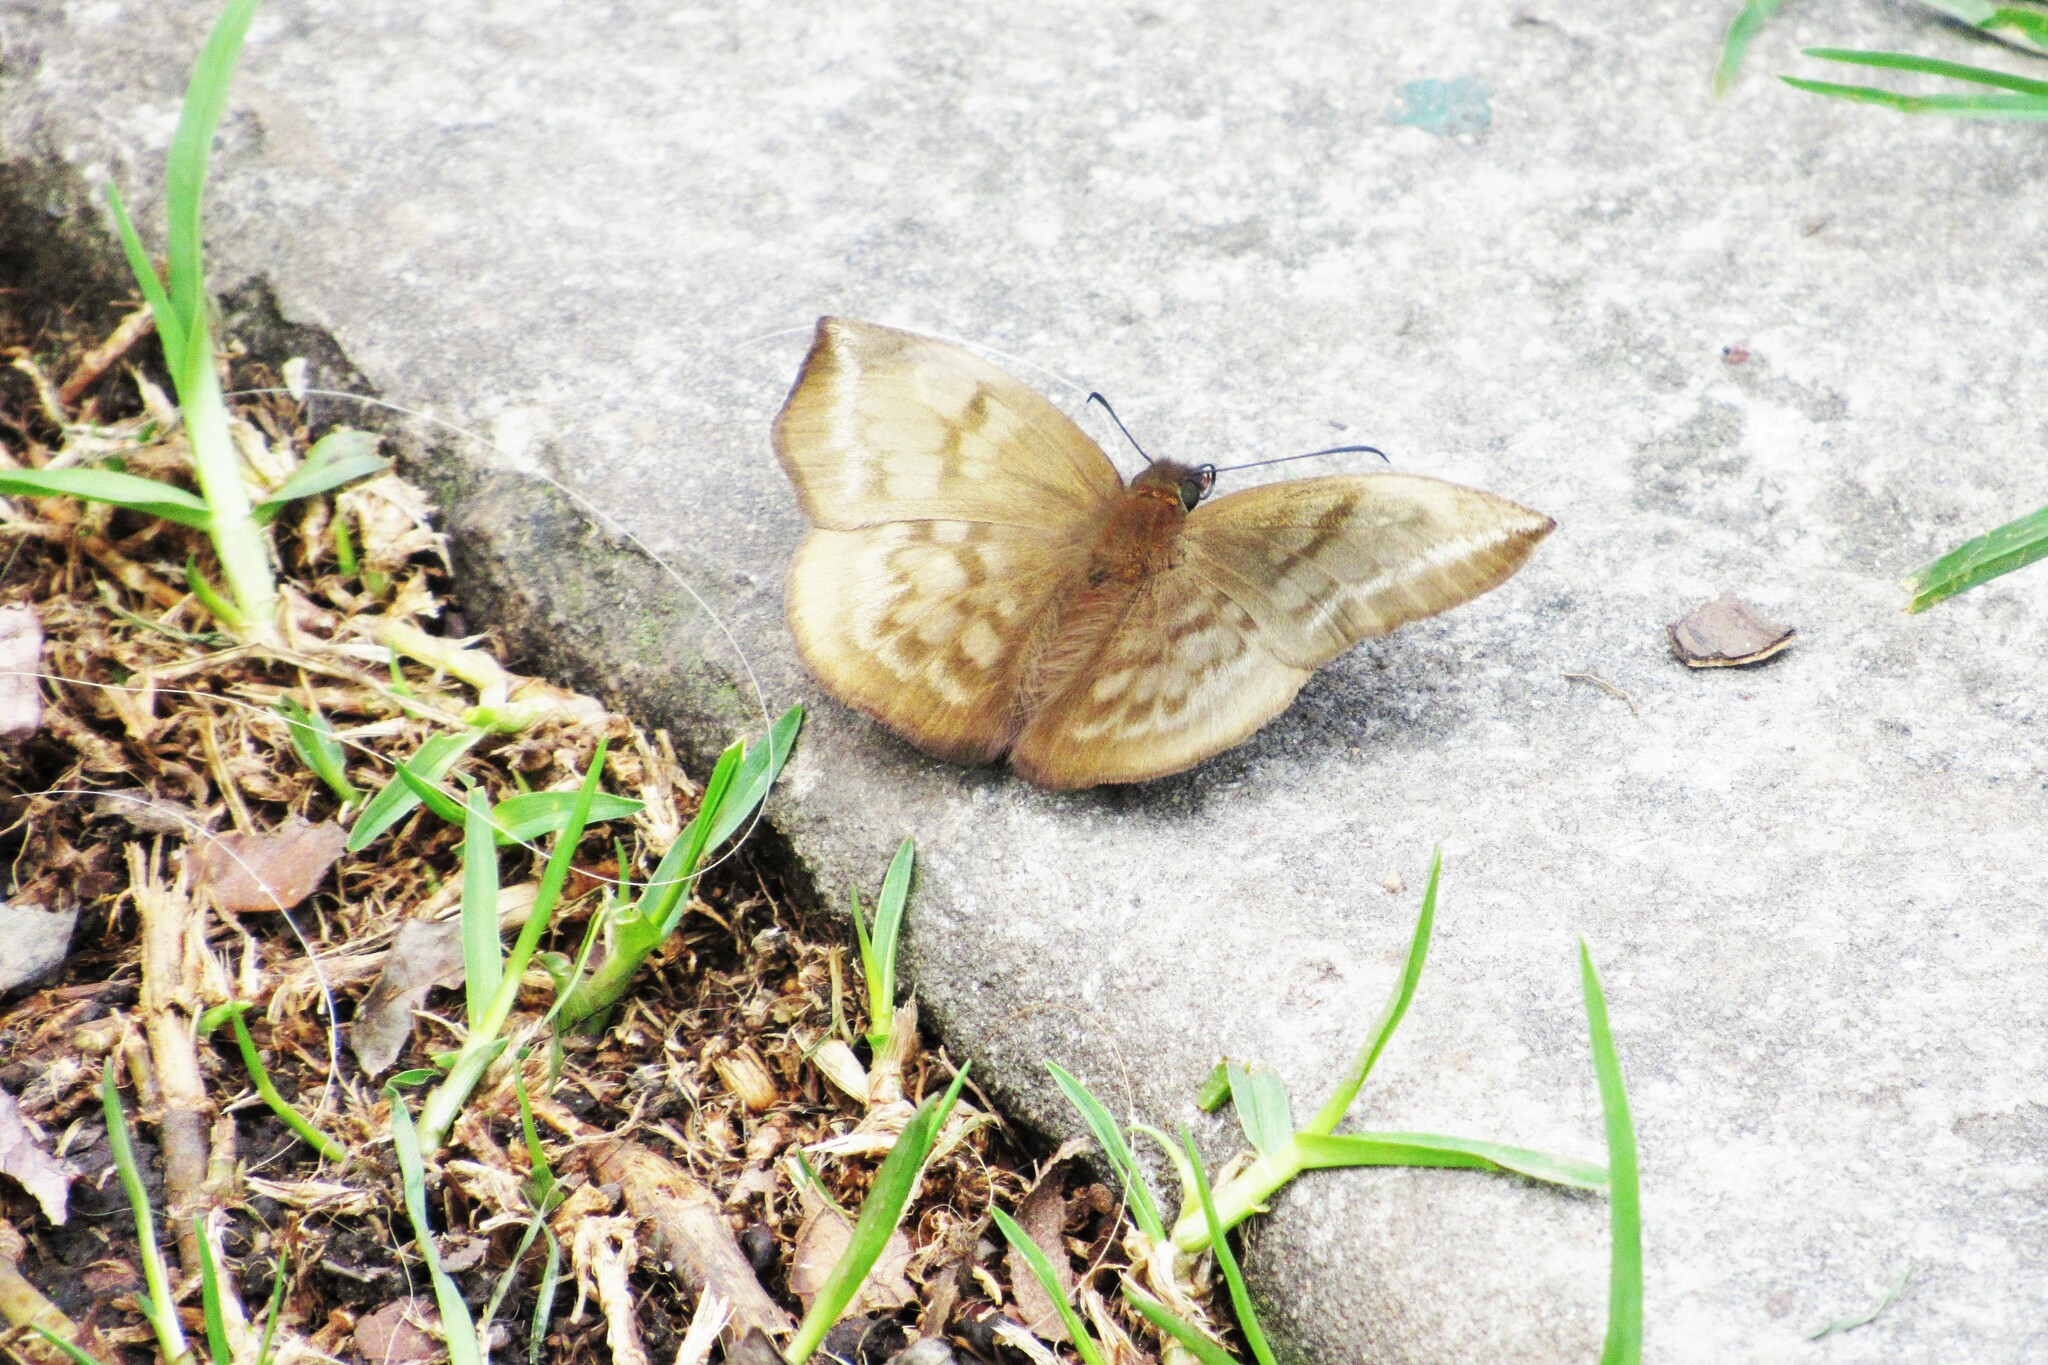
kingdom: Animalia
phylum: Arthropoda
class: Insecta
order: Lepidoptera
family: Hesperiidae
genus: Achlyodes
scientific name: Achlyodes pallida
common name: Pale sicklewing
